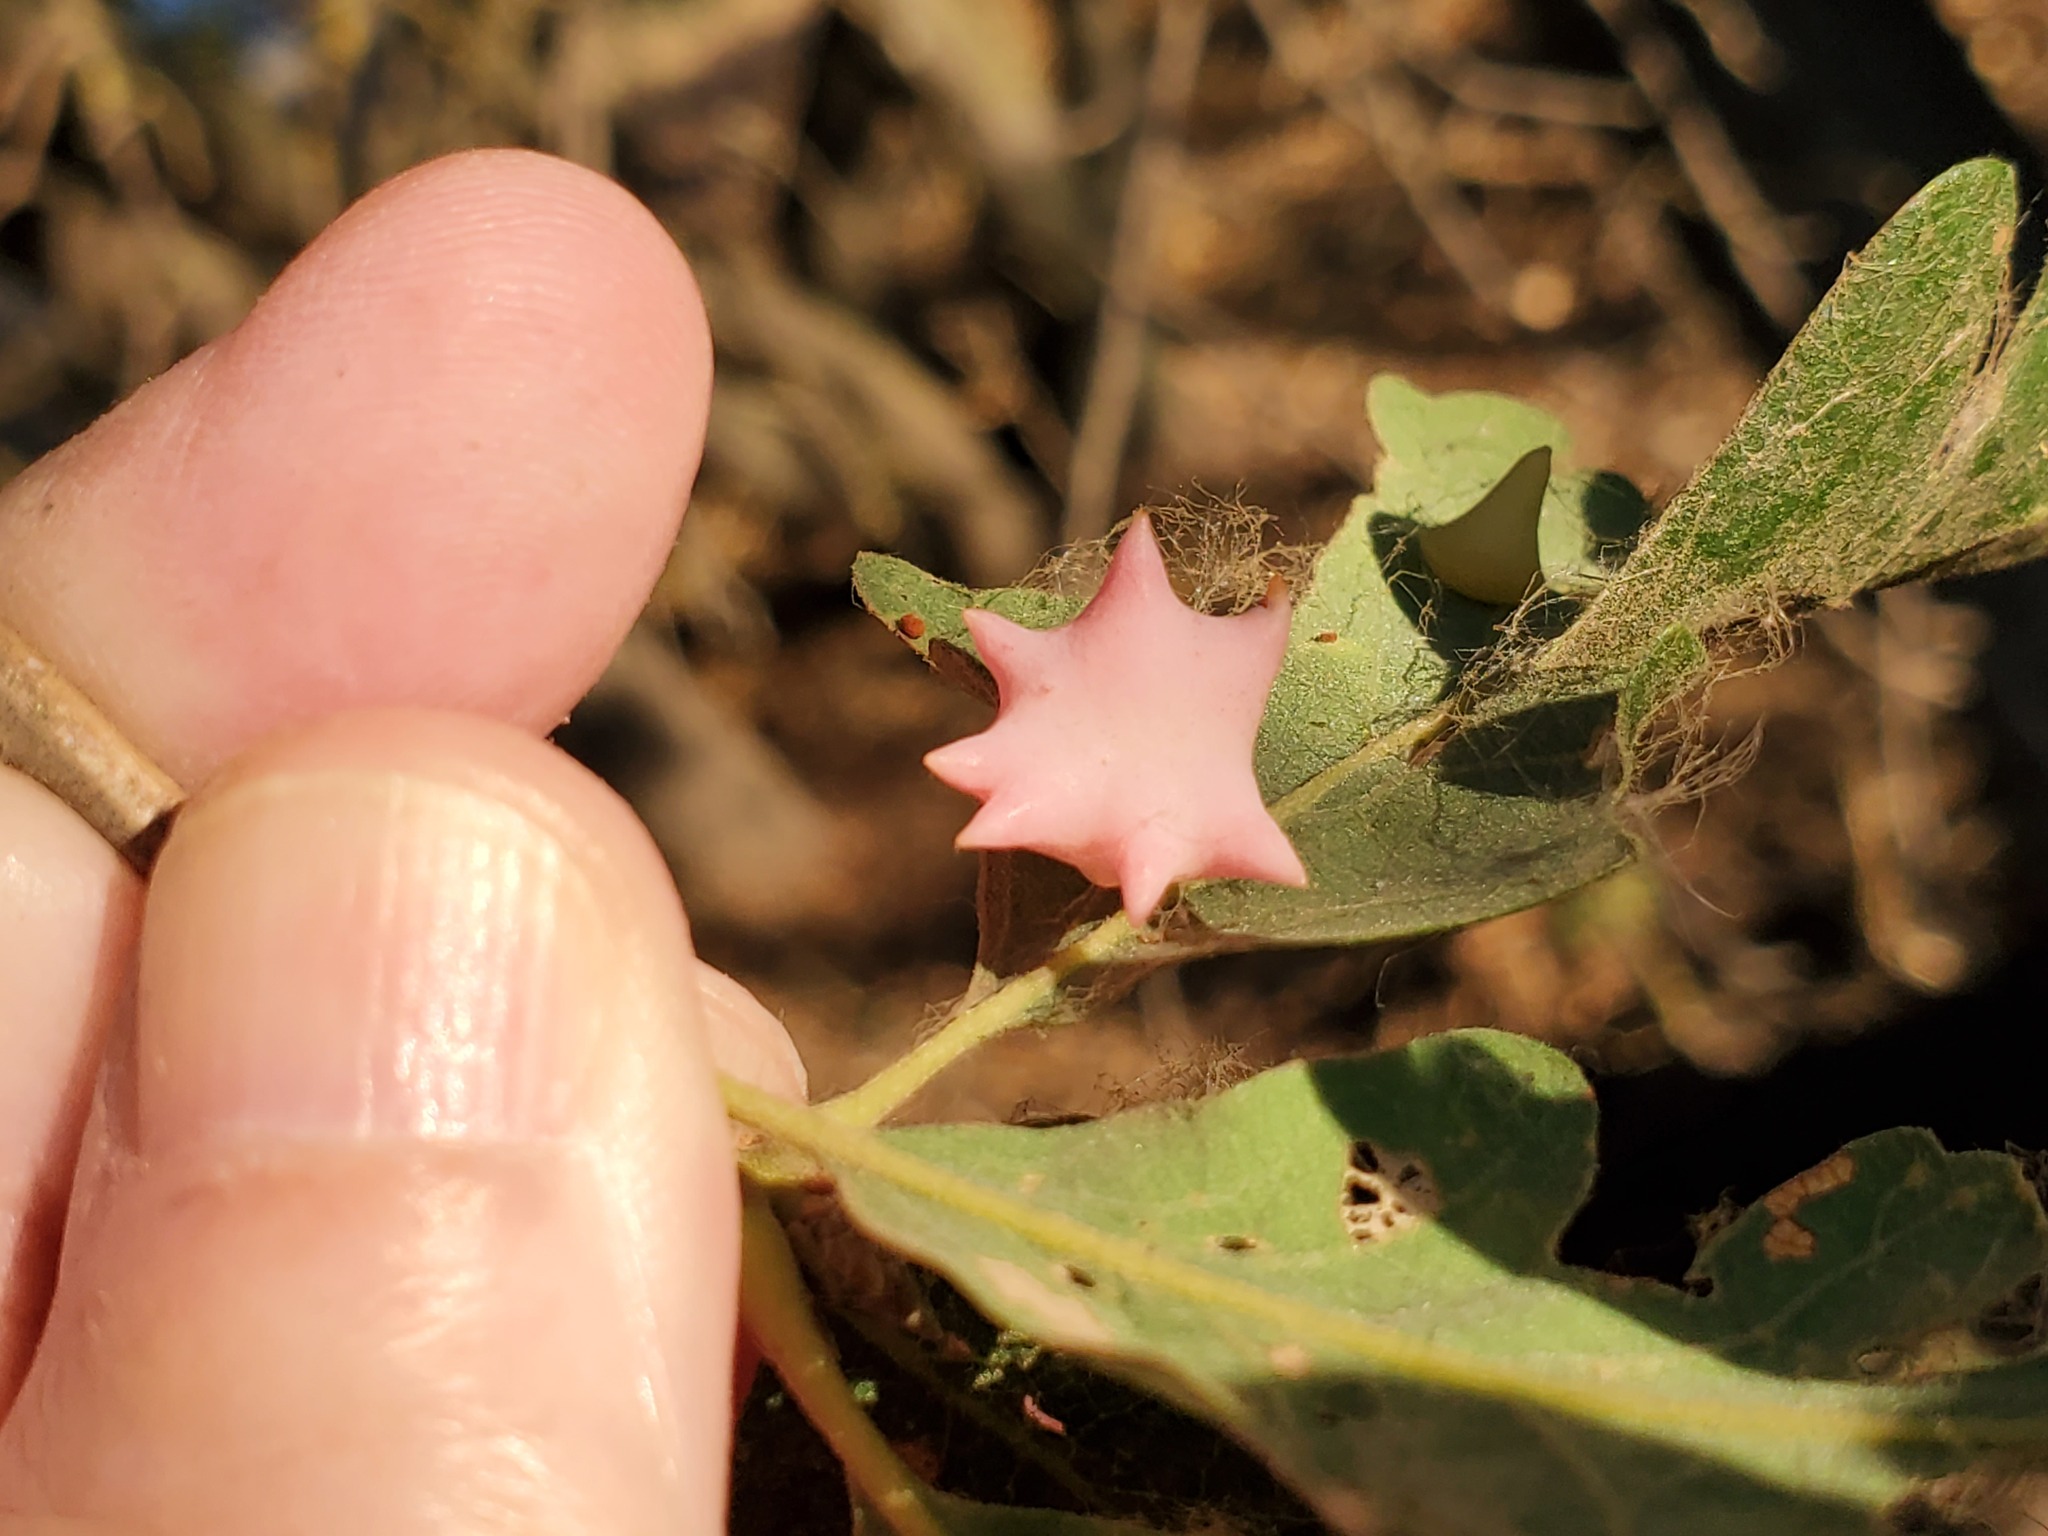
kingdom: Animalia
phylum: Arthropoda
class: Insecta
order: Hymenoptera
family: Cynipidae
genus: Cynips
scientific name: Cynips douglasi
